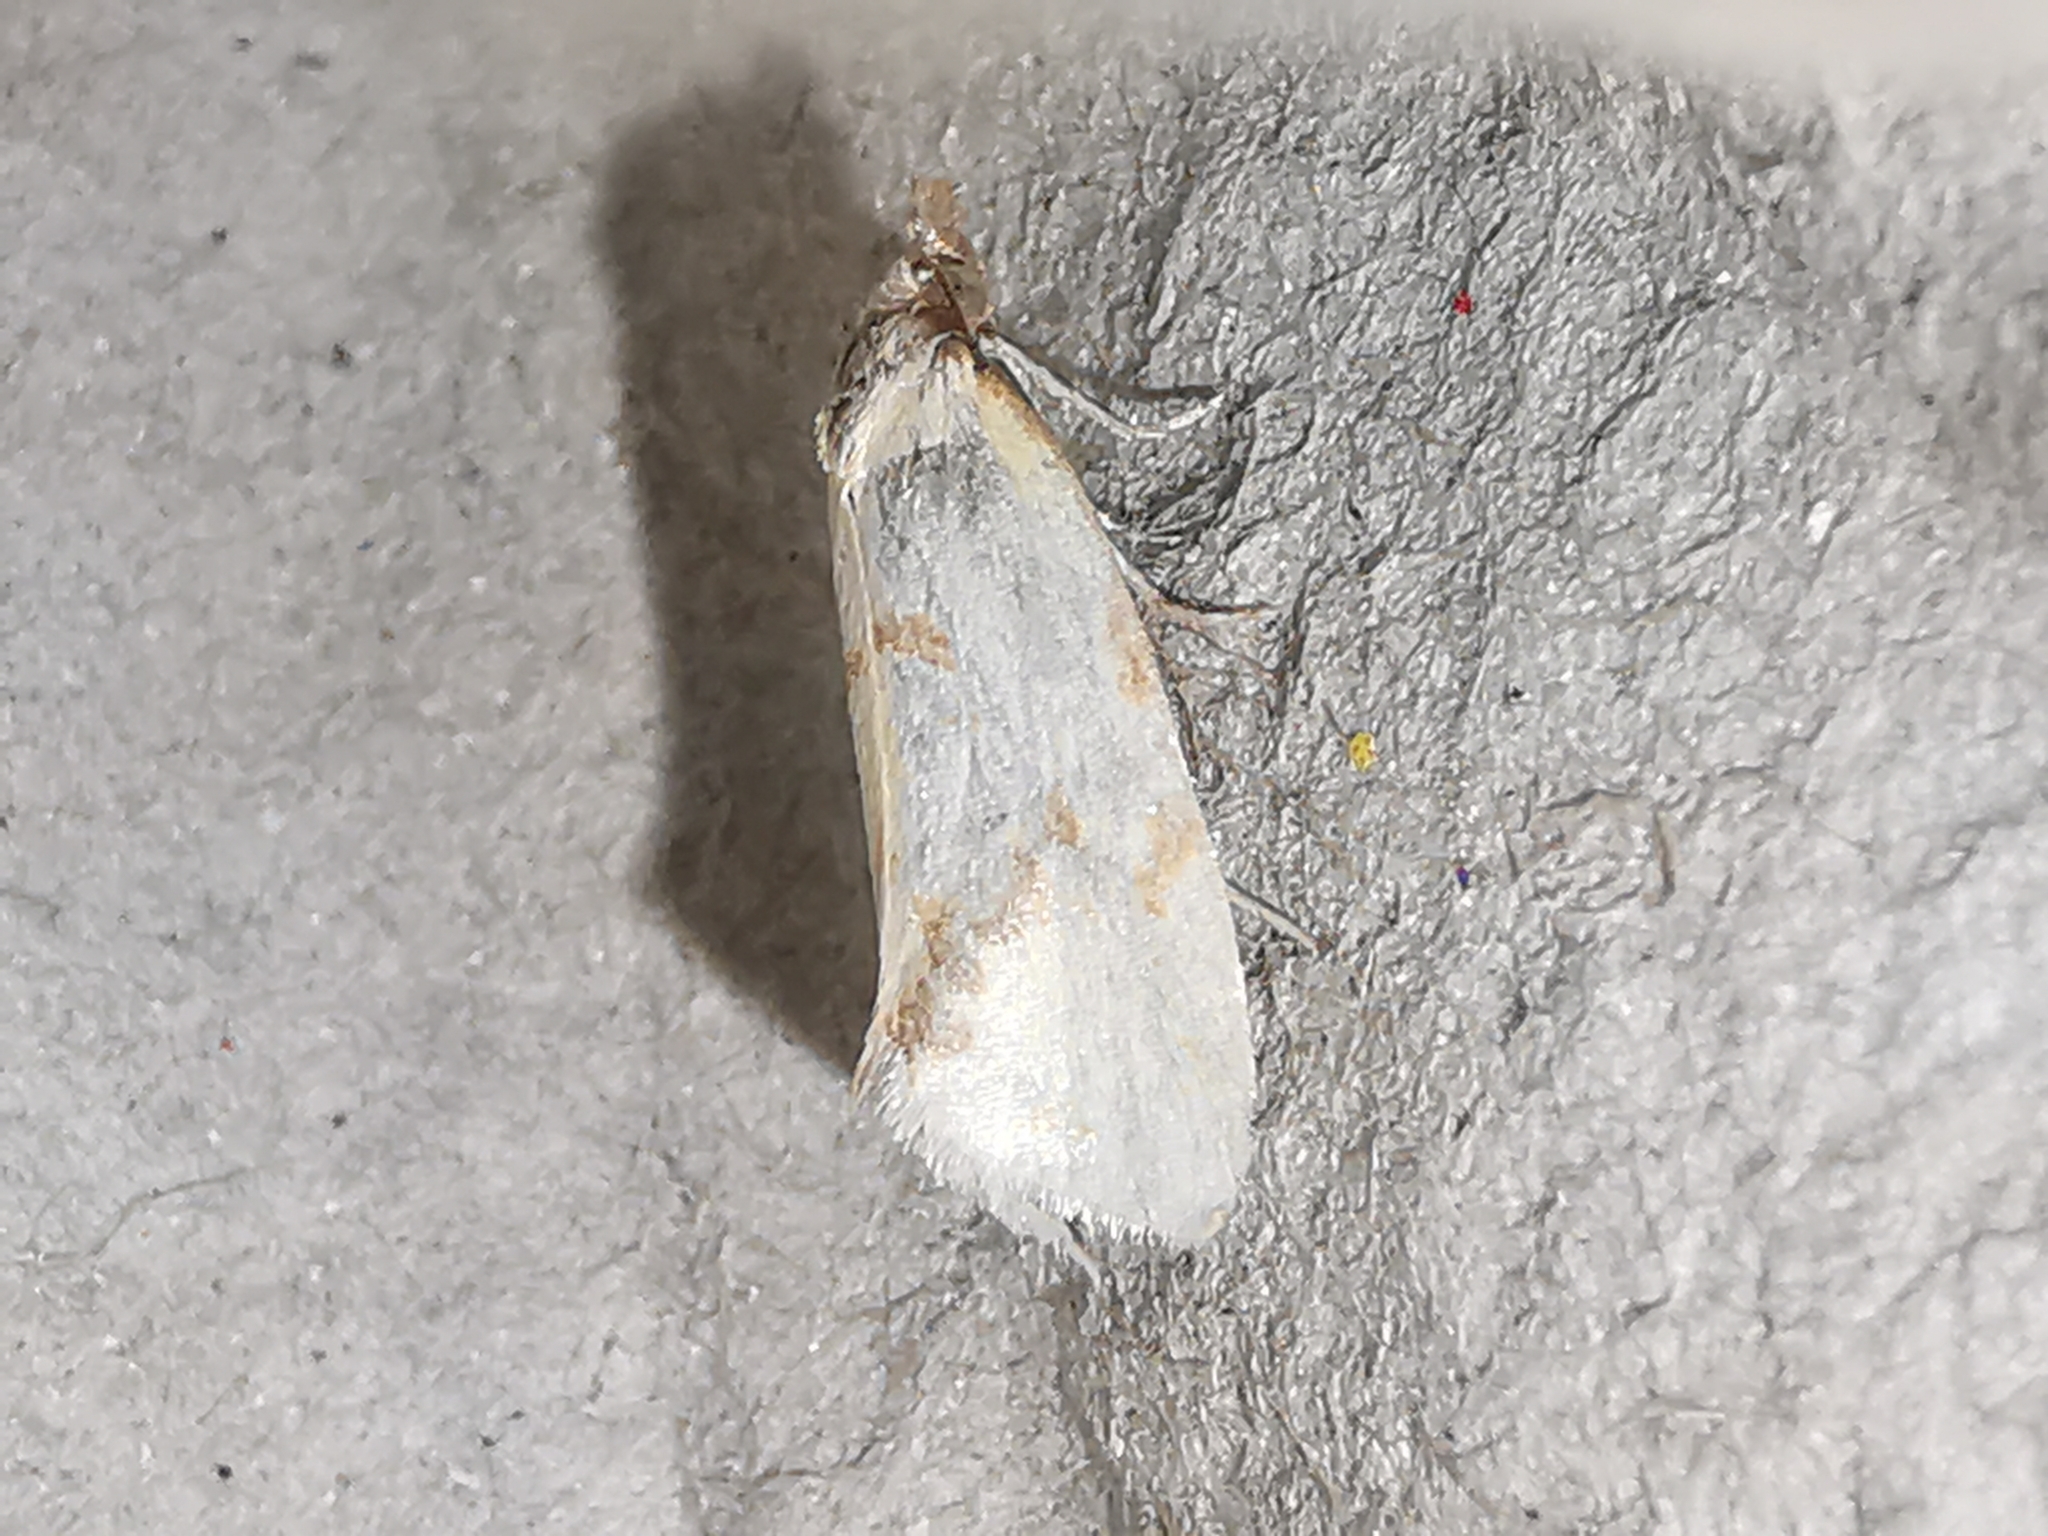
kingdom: Animalia
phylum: Arthropoda
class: Insecta
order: Lepidoptera
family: Tortricidae
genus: Agapeta
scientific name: Agapeta hamana
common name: Common yellow conch
